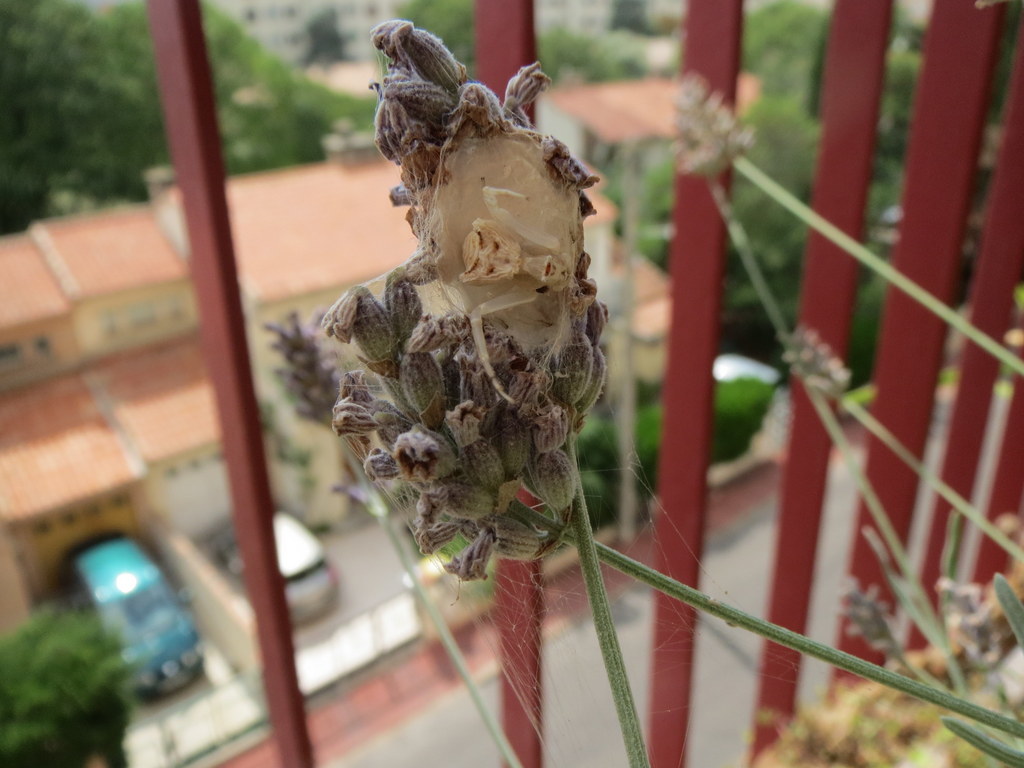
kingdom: Animalia
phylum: Arthropoda
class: Arachnida
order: Araneae
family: Thomisidae
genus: Thomisus
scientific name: Thomisus onustus
